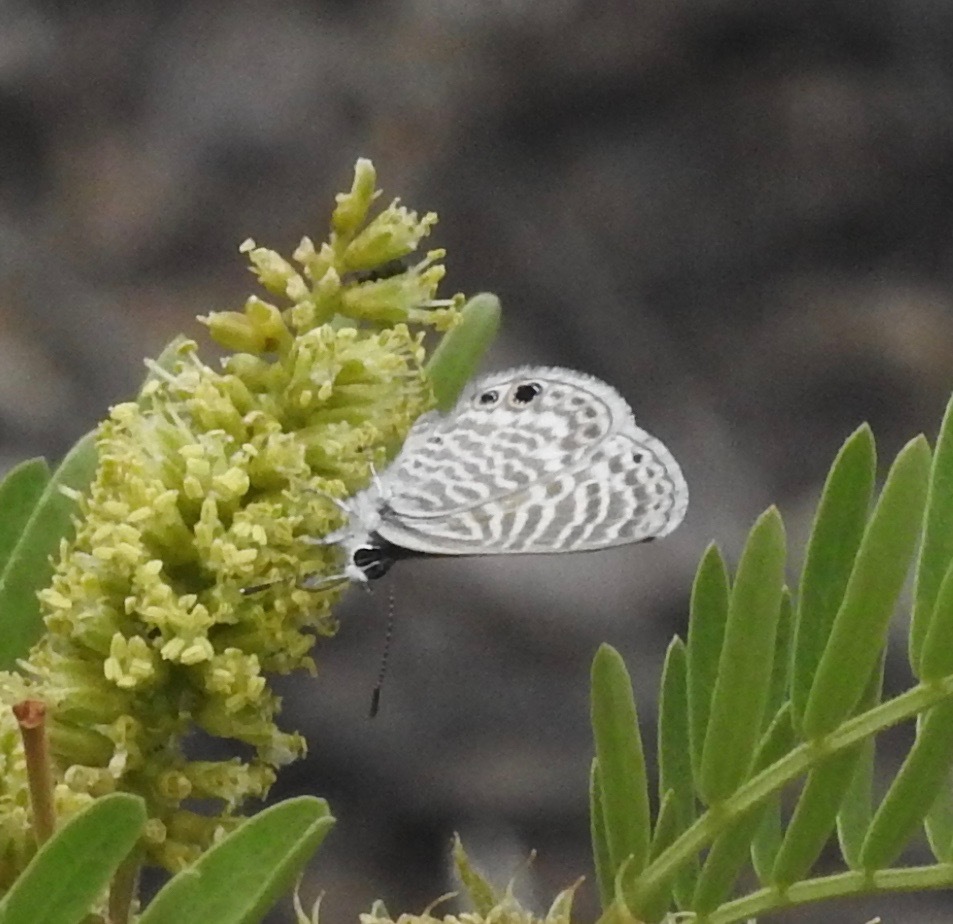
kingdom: Animalia
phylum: Arthropoda
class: Insecta
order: Lepidoptera
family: Lycaenidae
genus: Leptotes
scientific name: Leptotes marina
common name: Marine blue
